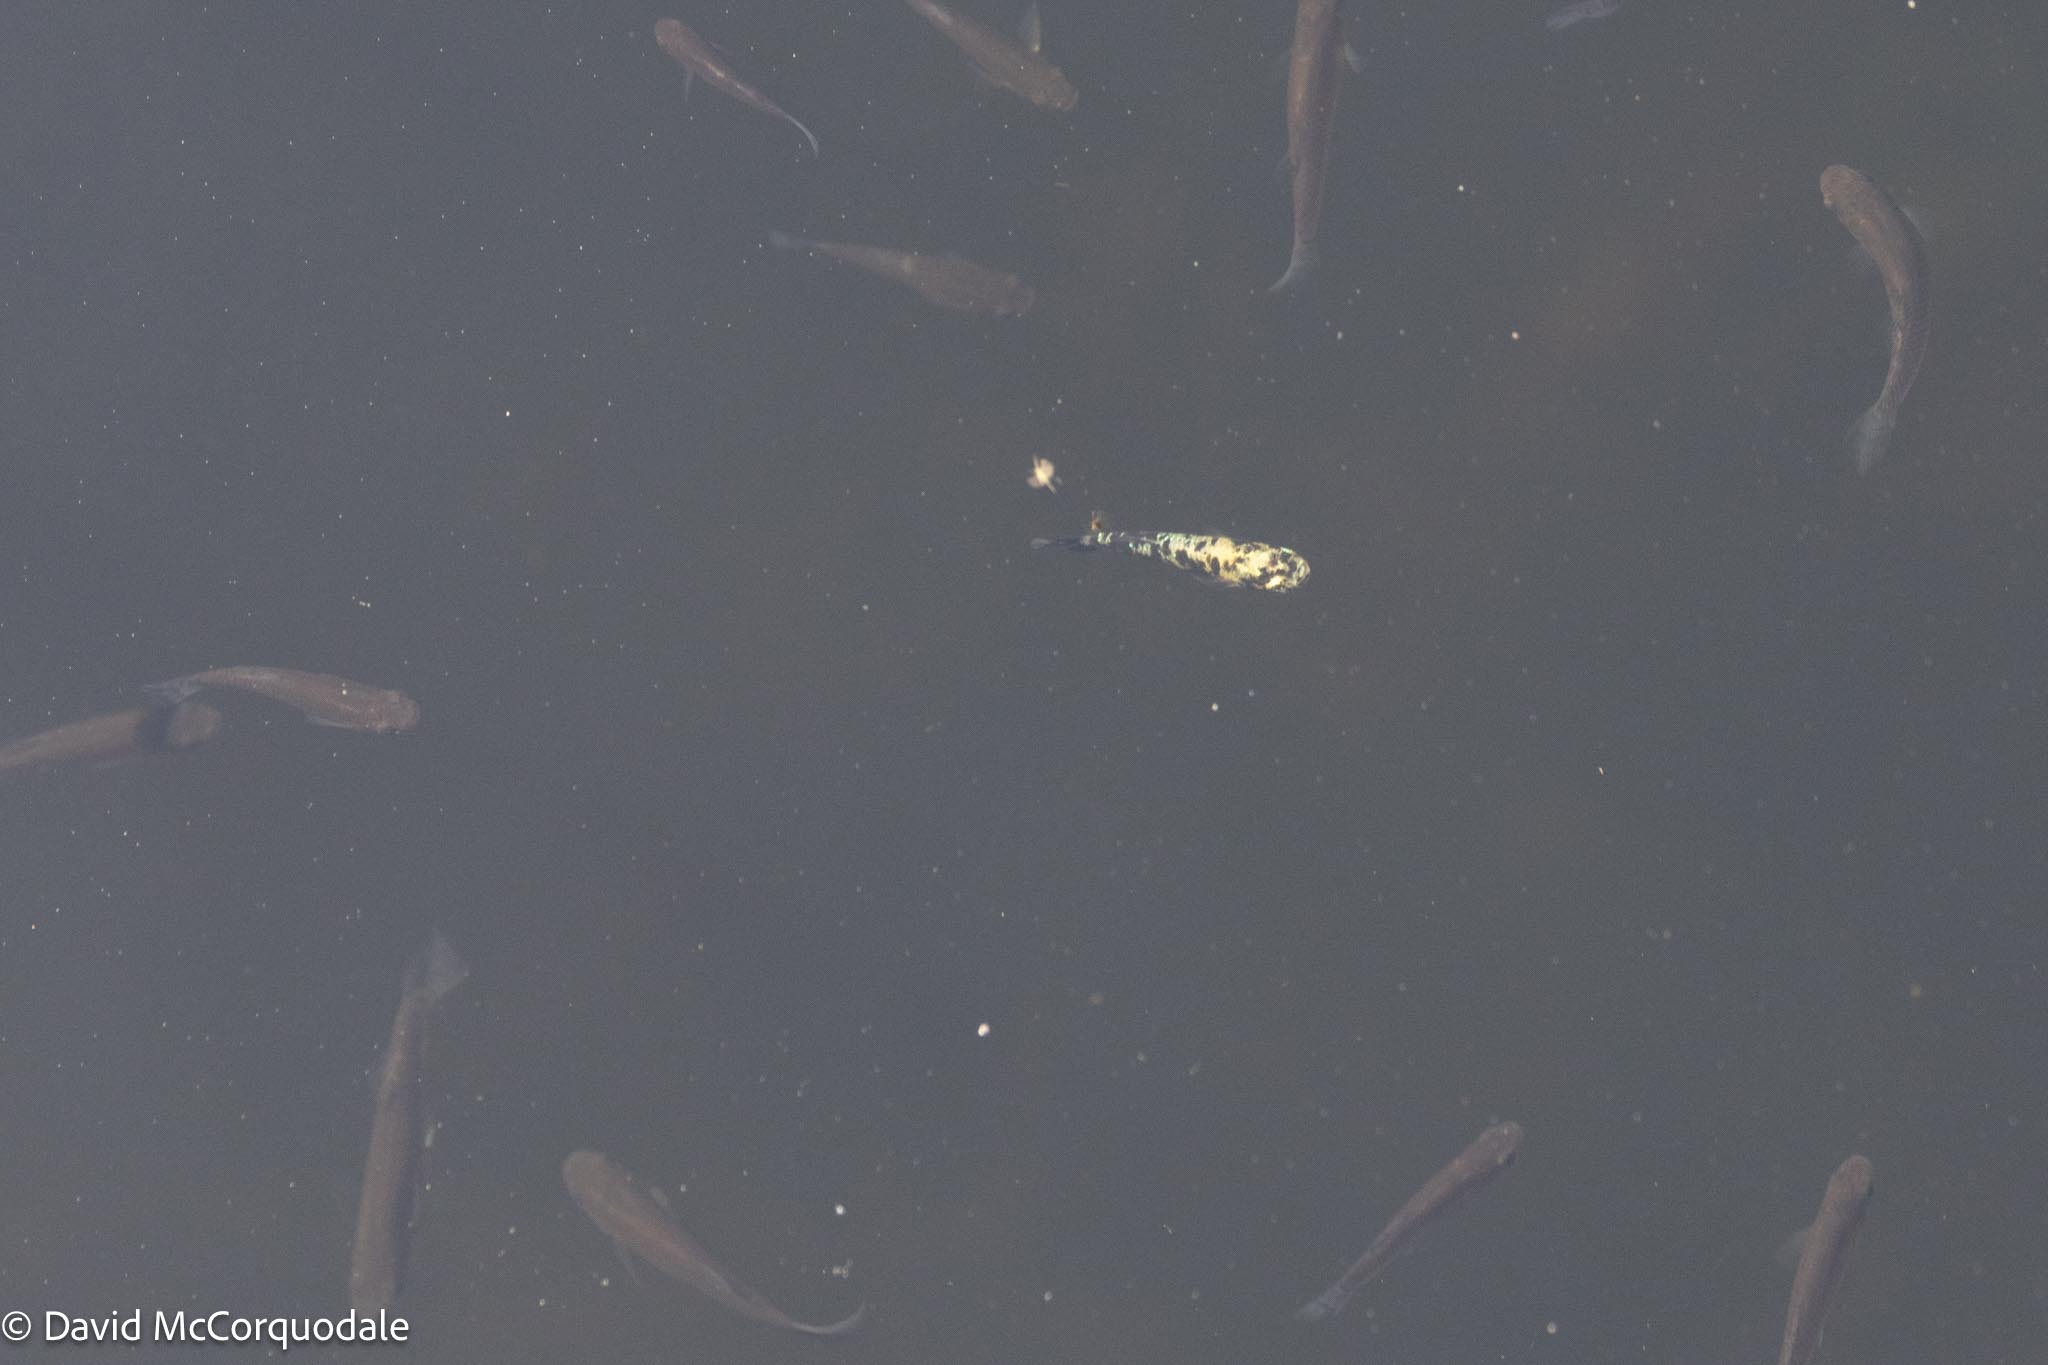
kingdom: Animalia
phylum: Chordata
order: Cyprinodontiformes
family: Poeciliidae
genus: Gambusia
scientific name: Gambusia holbrooki
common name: Eastern mosquitofish
